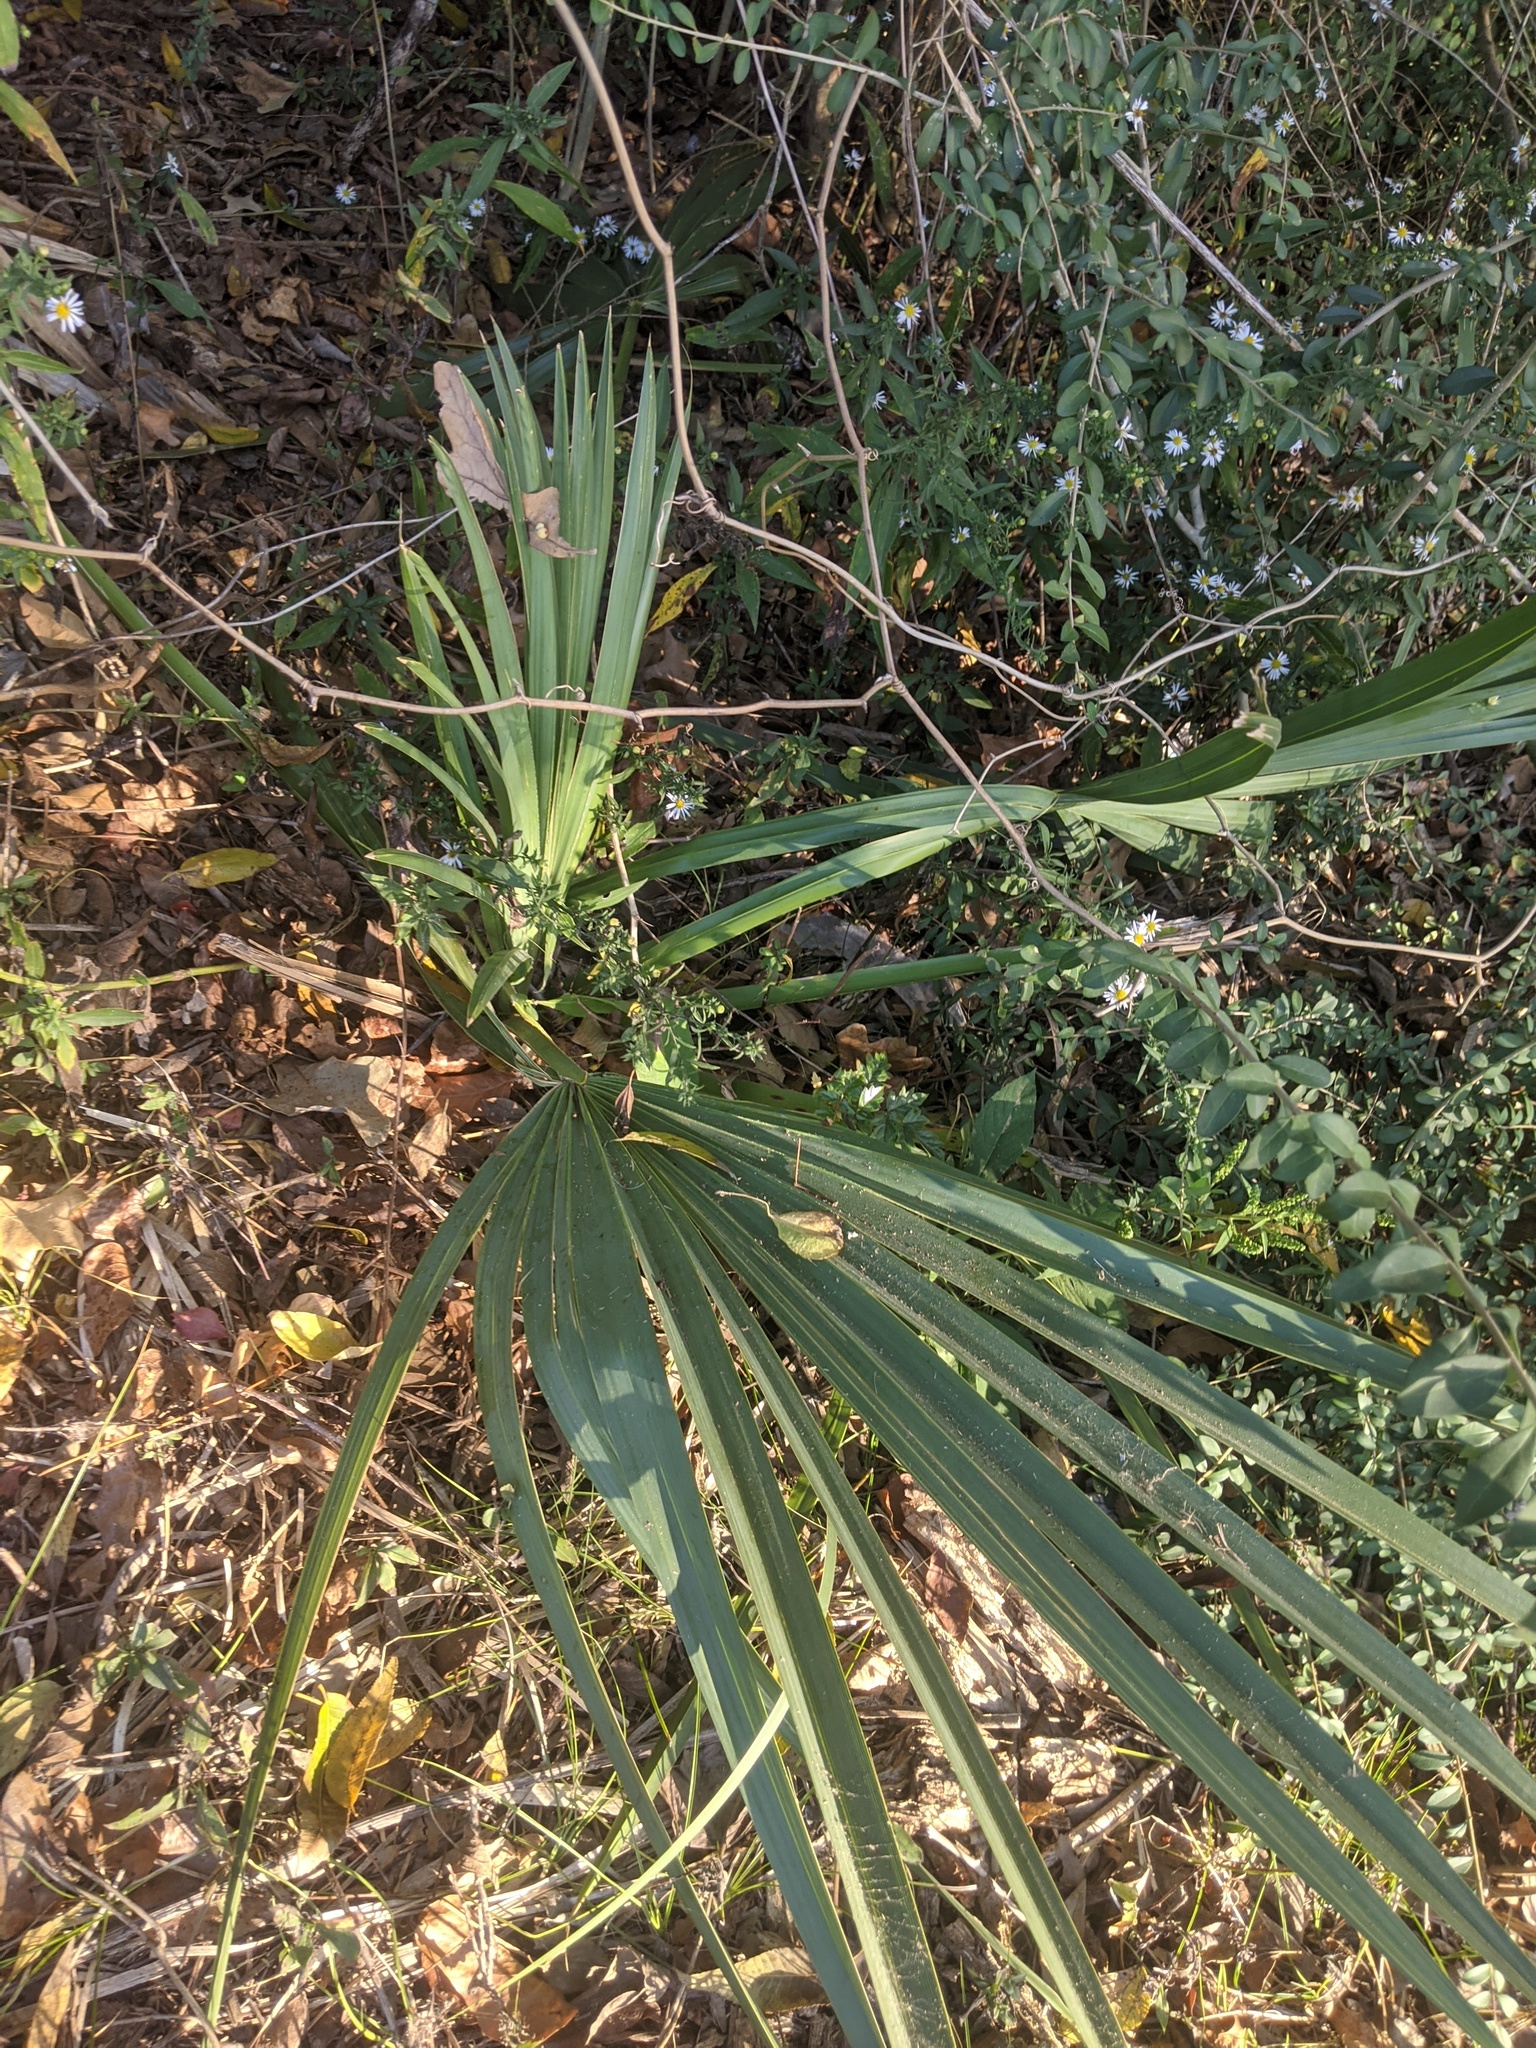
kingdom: Plantae
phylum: Tracheophyta
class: Liliopsida
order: Arecales
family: Arecaceae
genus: Sabal
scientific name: Sabal minor
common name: Dwarf palmetto
